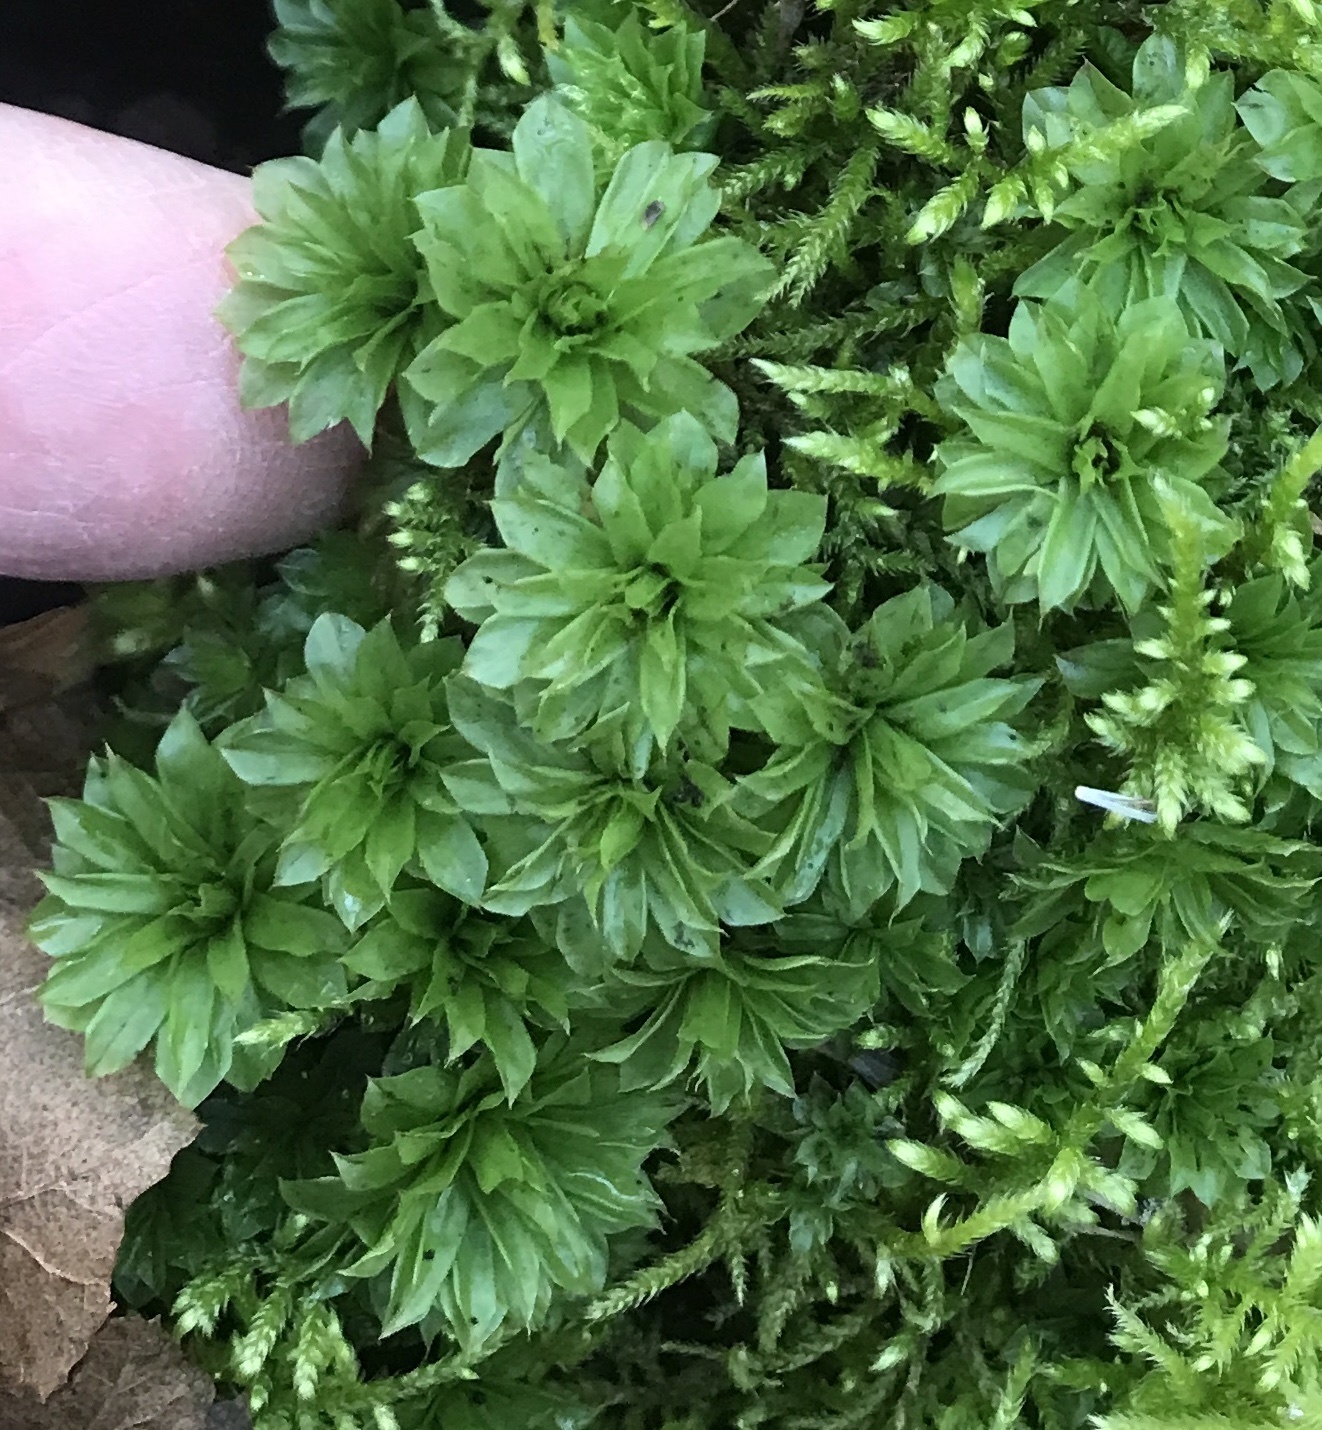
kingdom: Plantae
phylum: Bryophyta
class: Bryopsida
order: Bryales
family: Bryaceae
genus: Rhodobryum
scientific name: Rhodobryum ontariense
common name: Ontario rhodobryum moss
